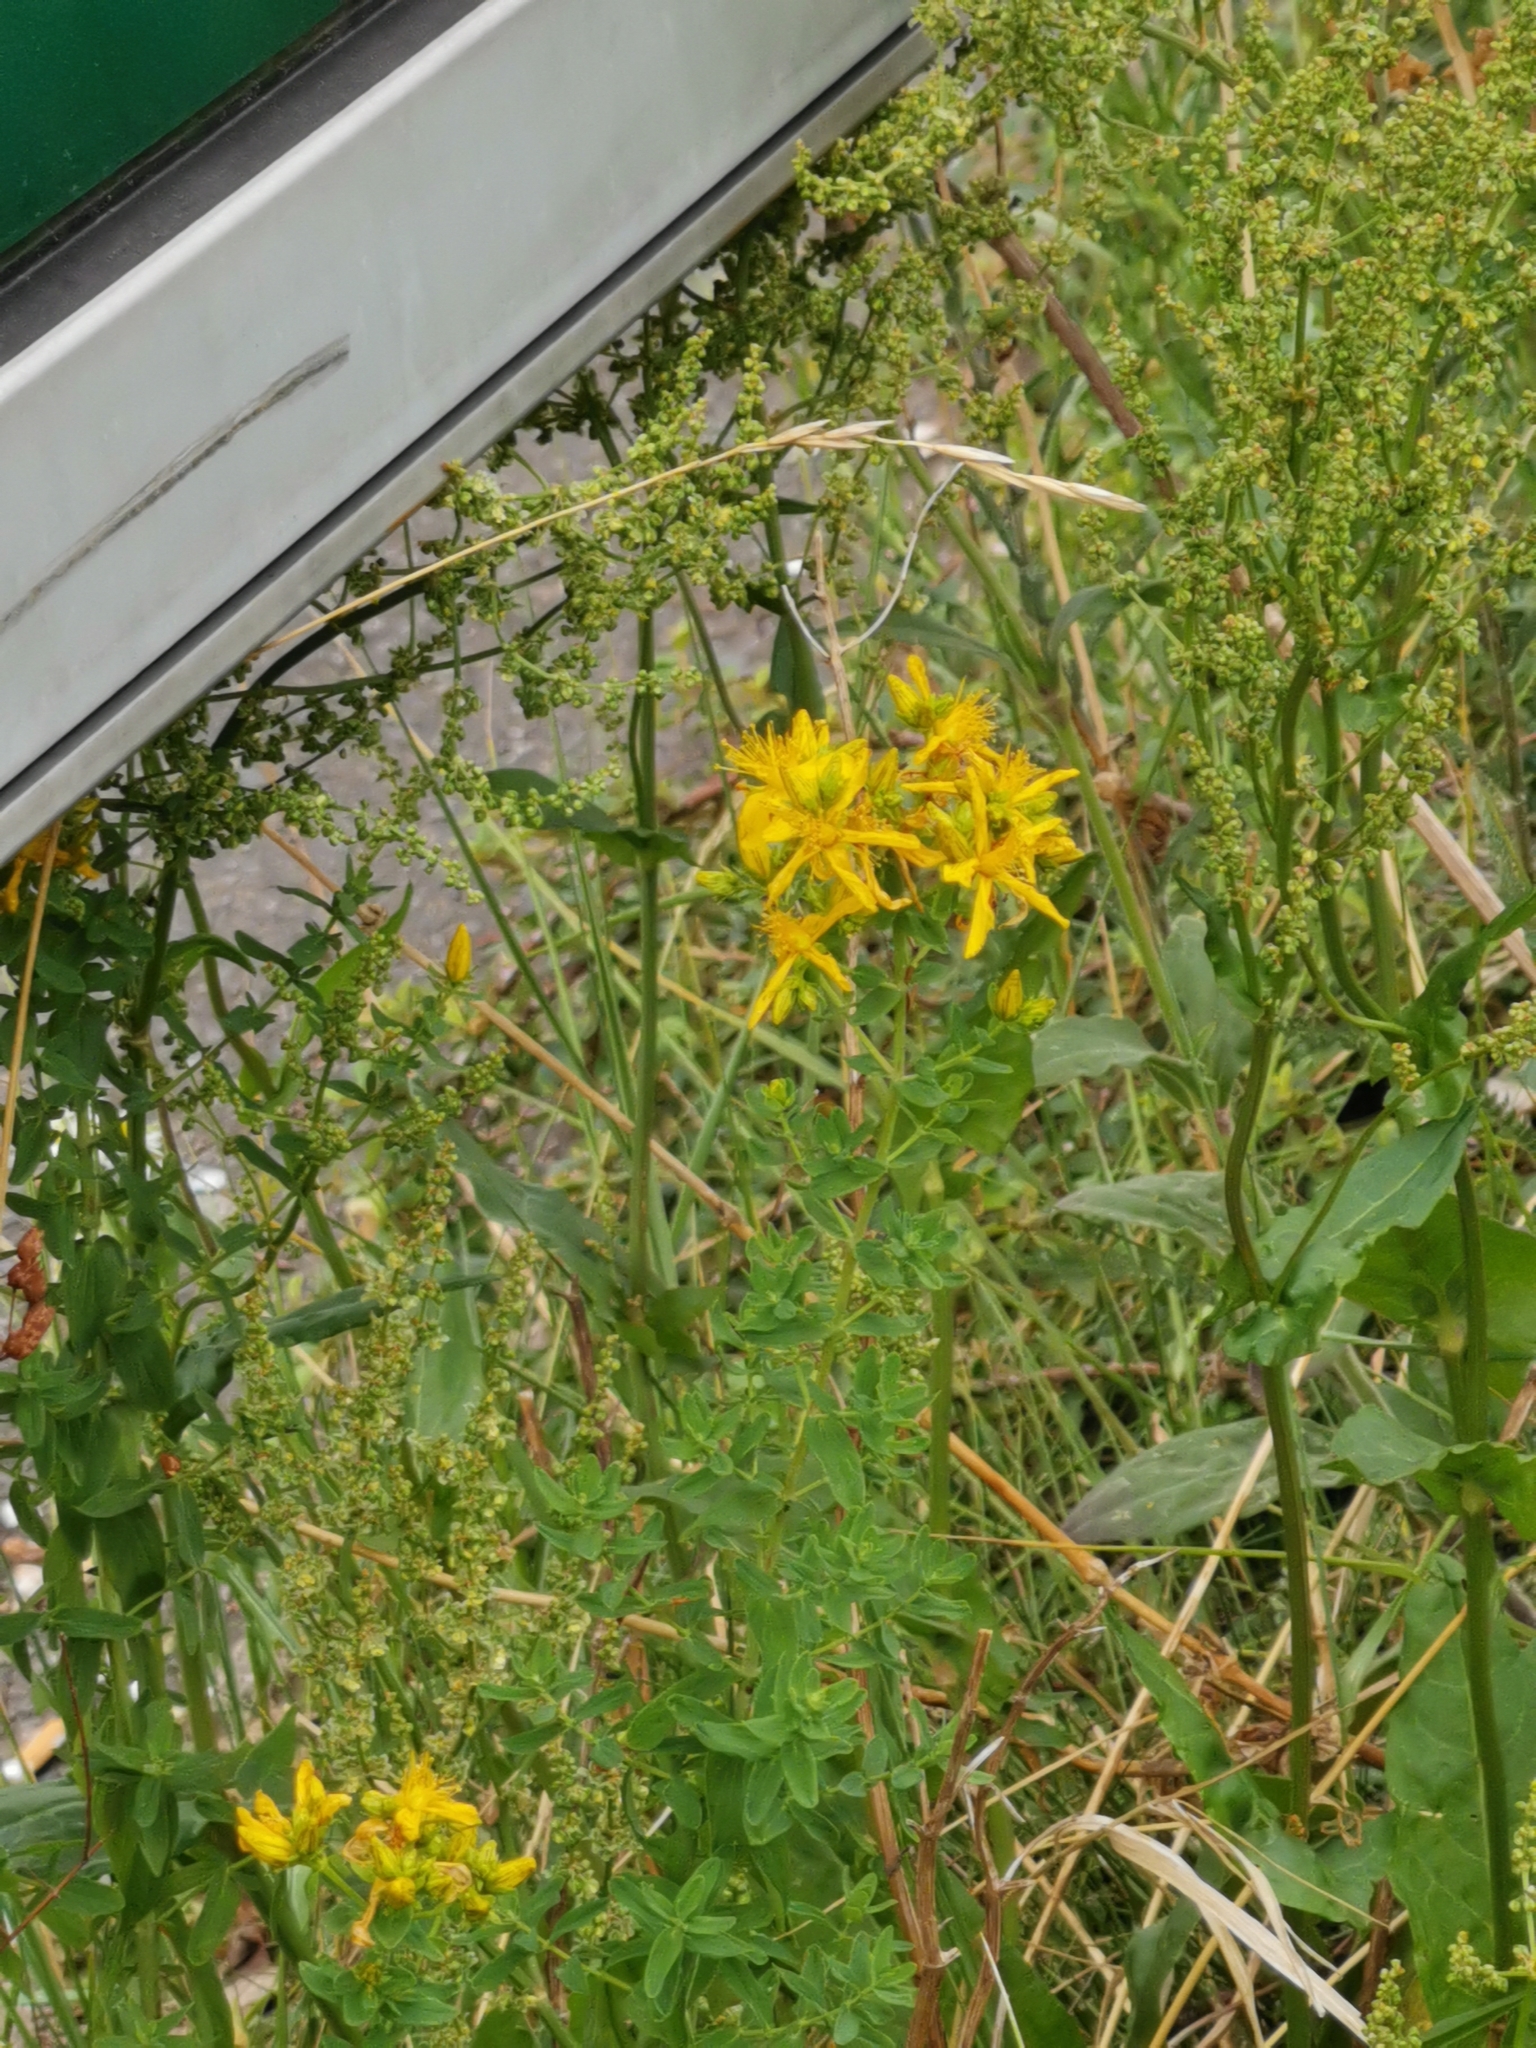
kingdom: Plantae
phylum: Tracheophyta
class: Magnoliopsida
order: Malpighiales
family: Hypericaceae
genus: Hypericum
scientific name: Hypericum perforatum
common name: Common st. johnswort
